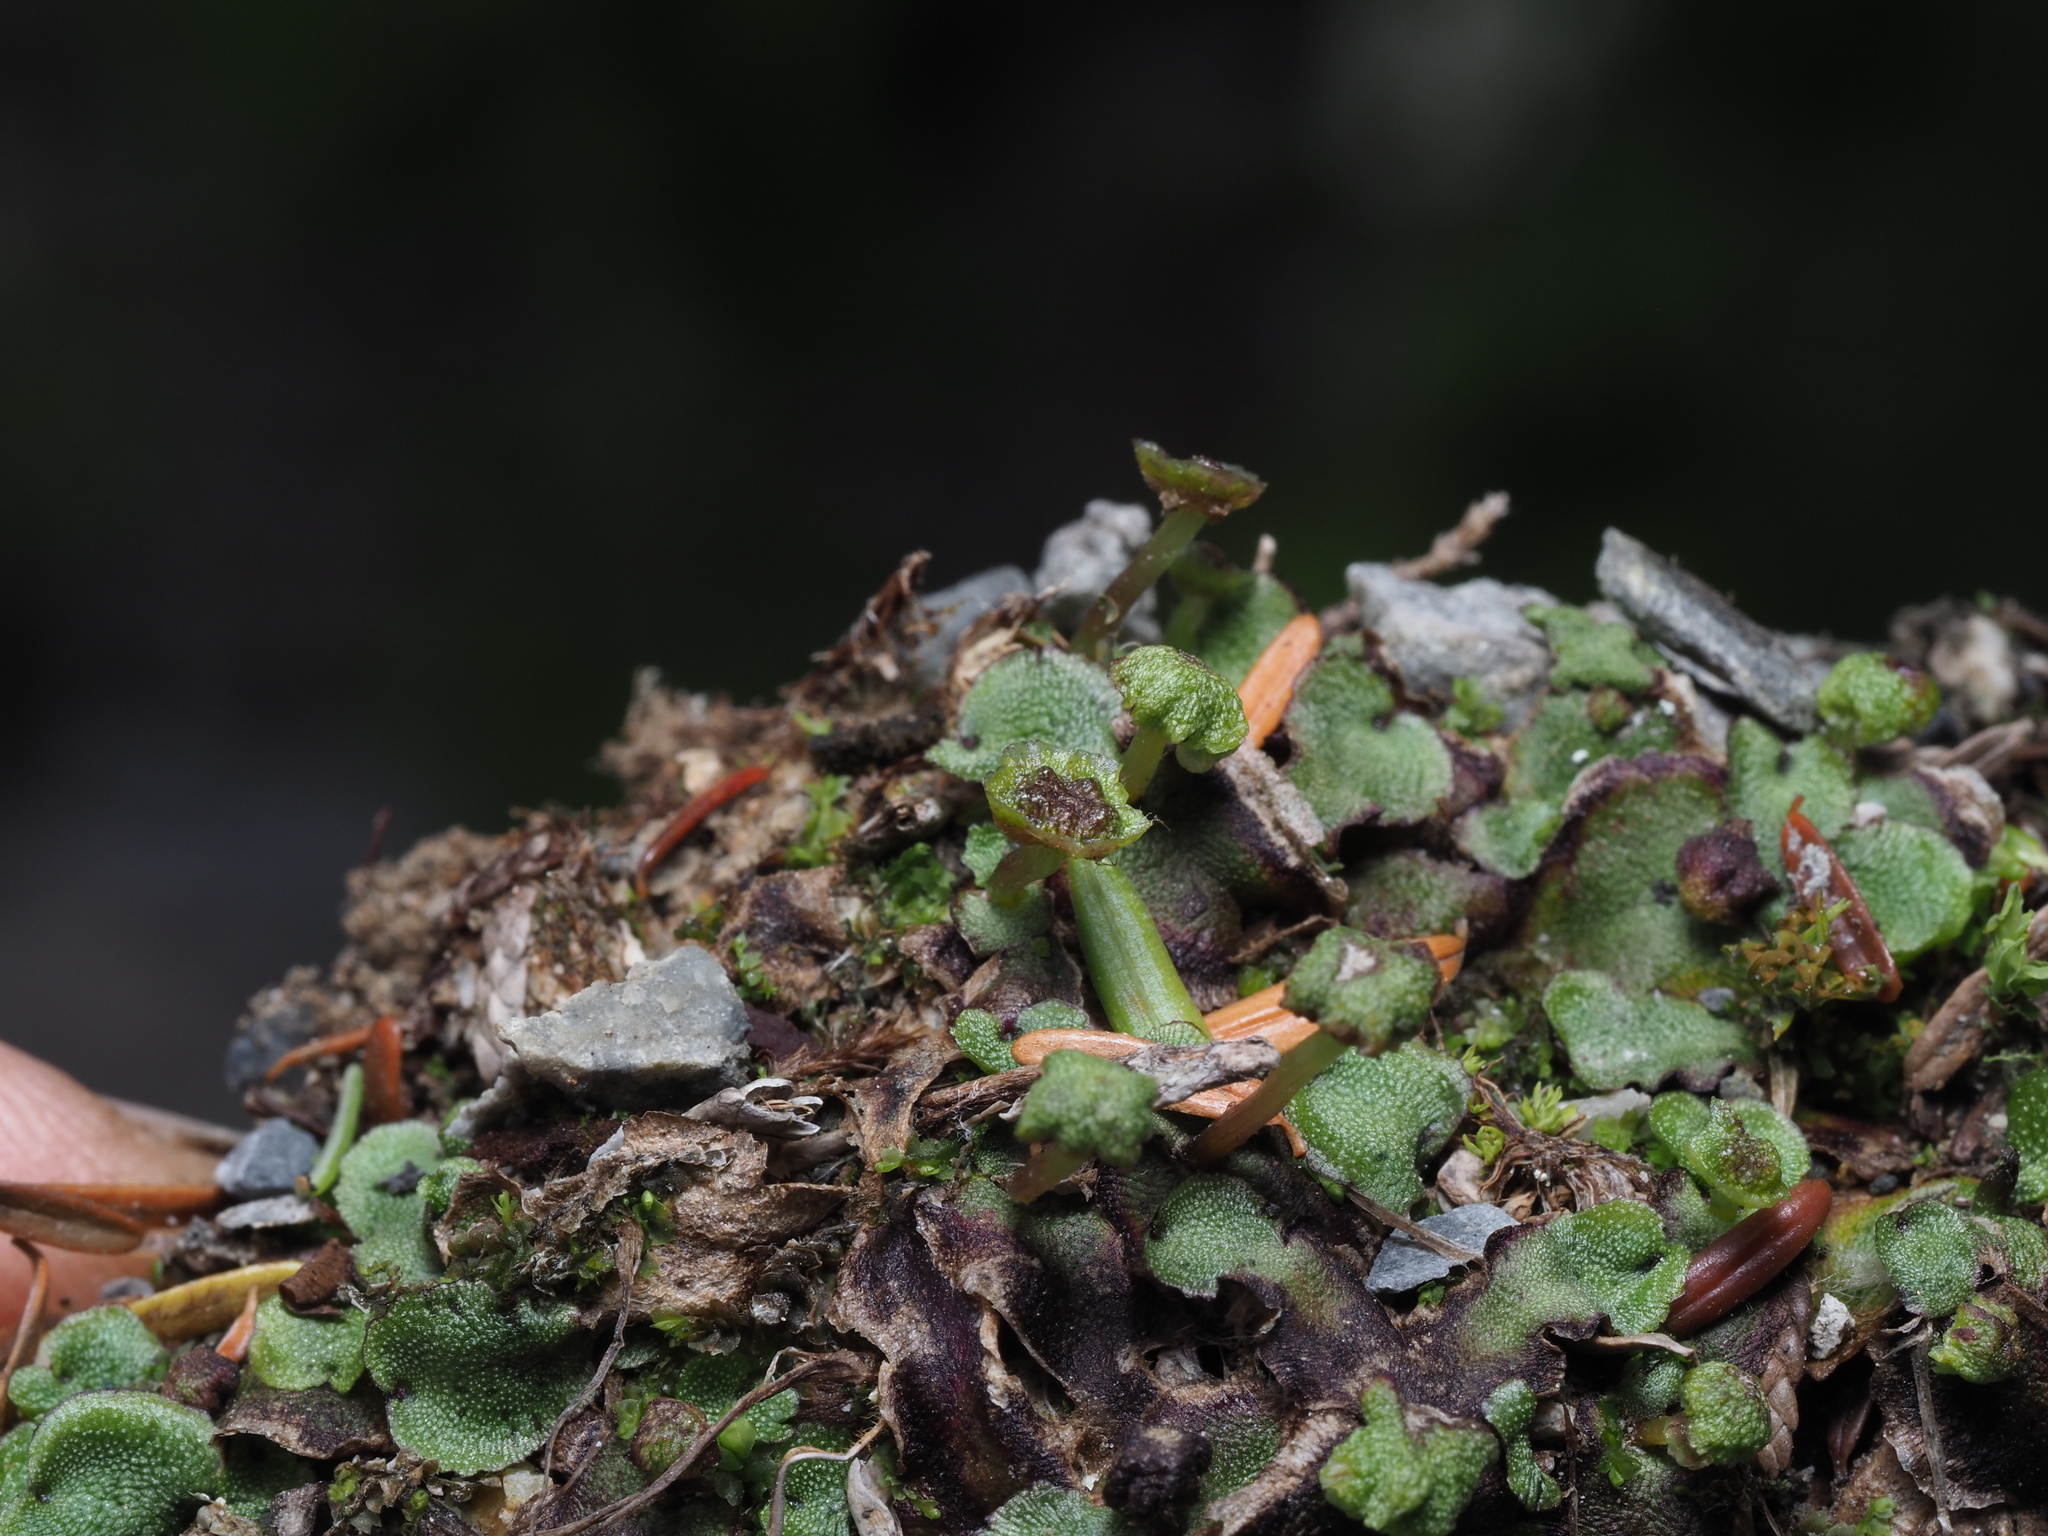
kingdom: Plantae
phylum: Marchantiophyta
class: Marchantiopsida
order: Marchantiales
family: Marchantiaceae
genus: Marchantia
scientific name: Marchantia quadrata
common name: Narrow mushroom-headed liverwort
